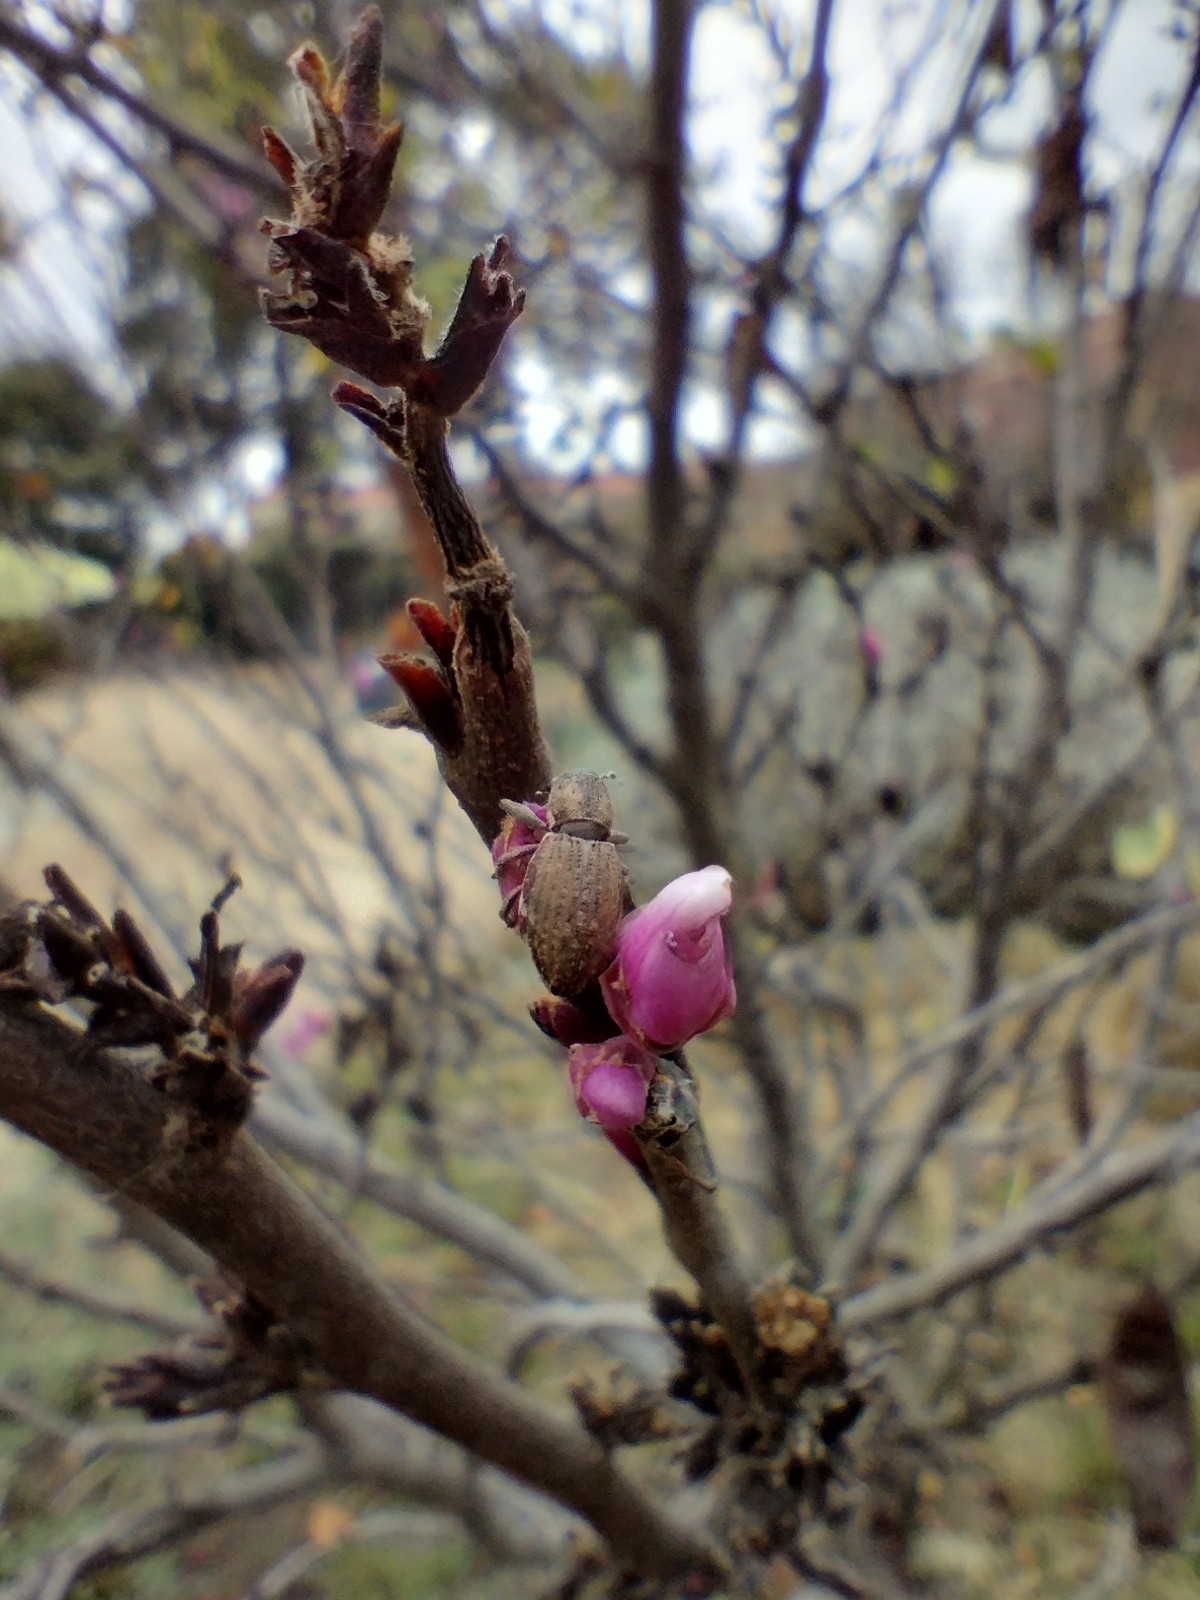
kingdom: Animalia
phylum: Arthropoda
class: Insecta
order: Coleoptera
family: Curculionidae
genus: Naupactus
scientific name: Naupactus cervinus
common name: Fuller rose beetle
